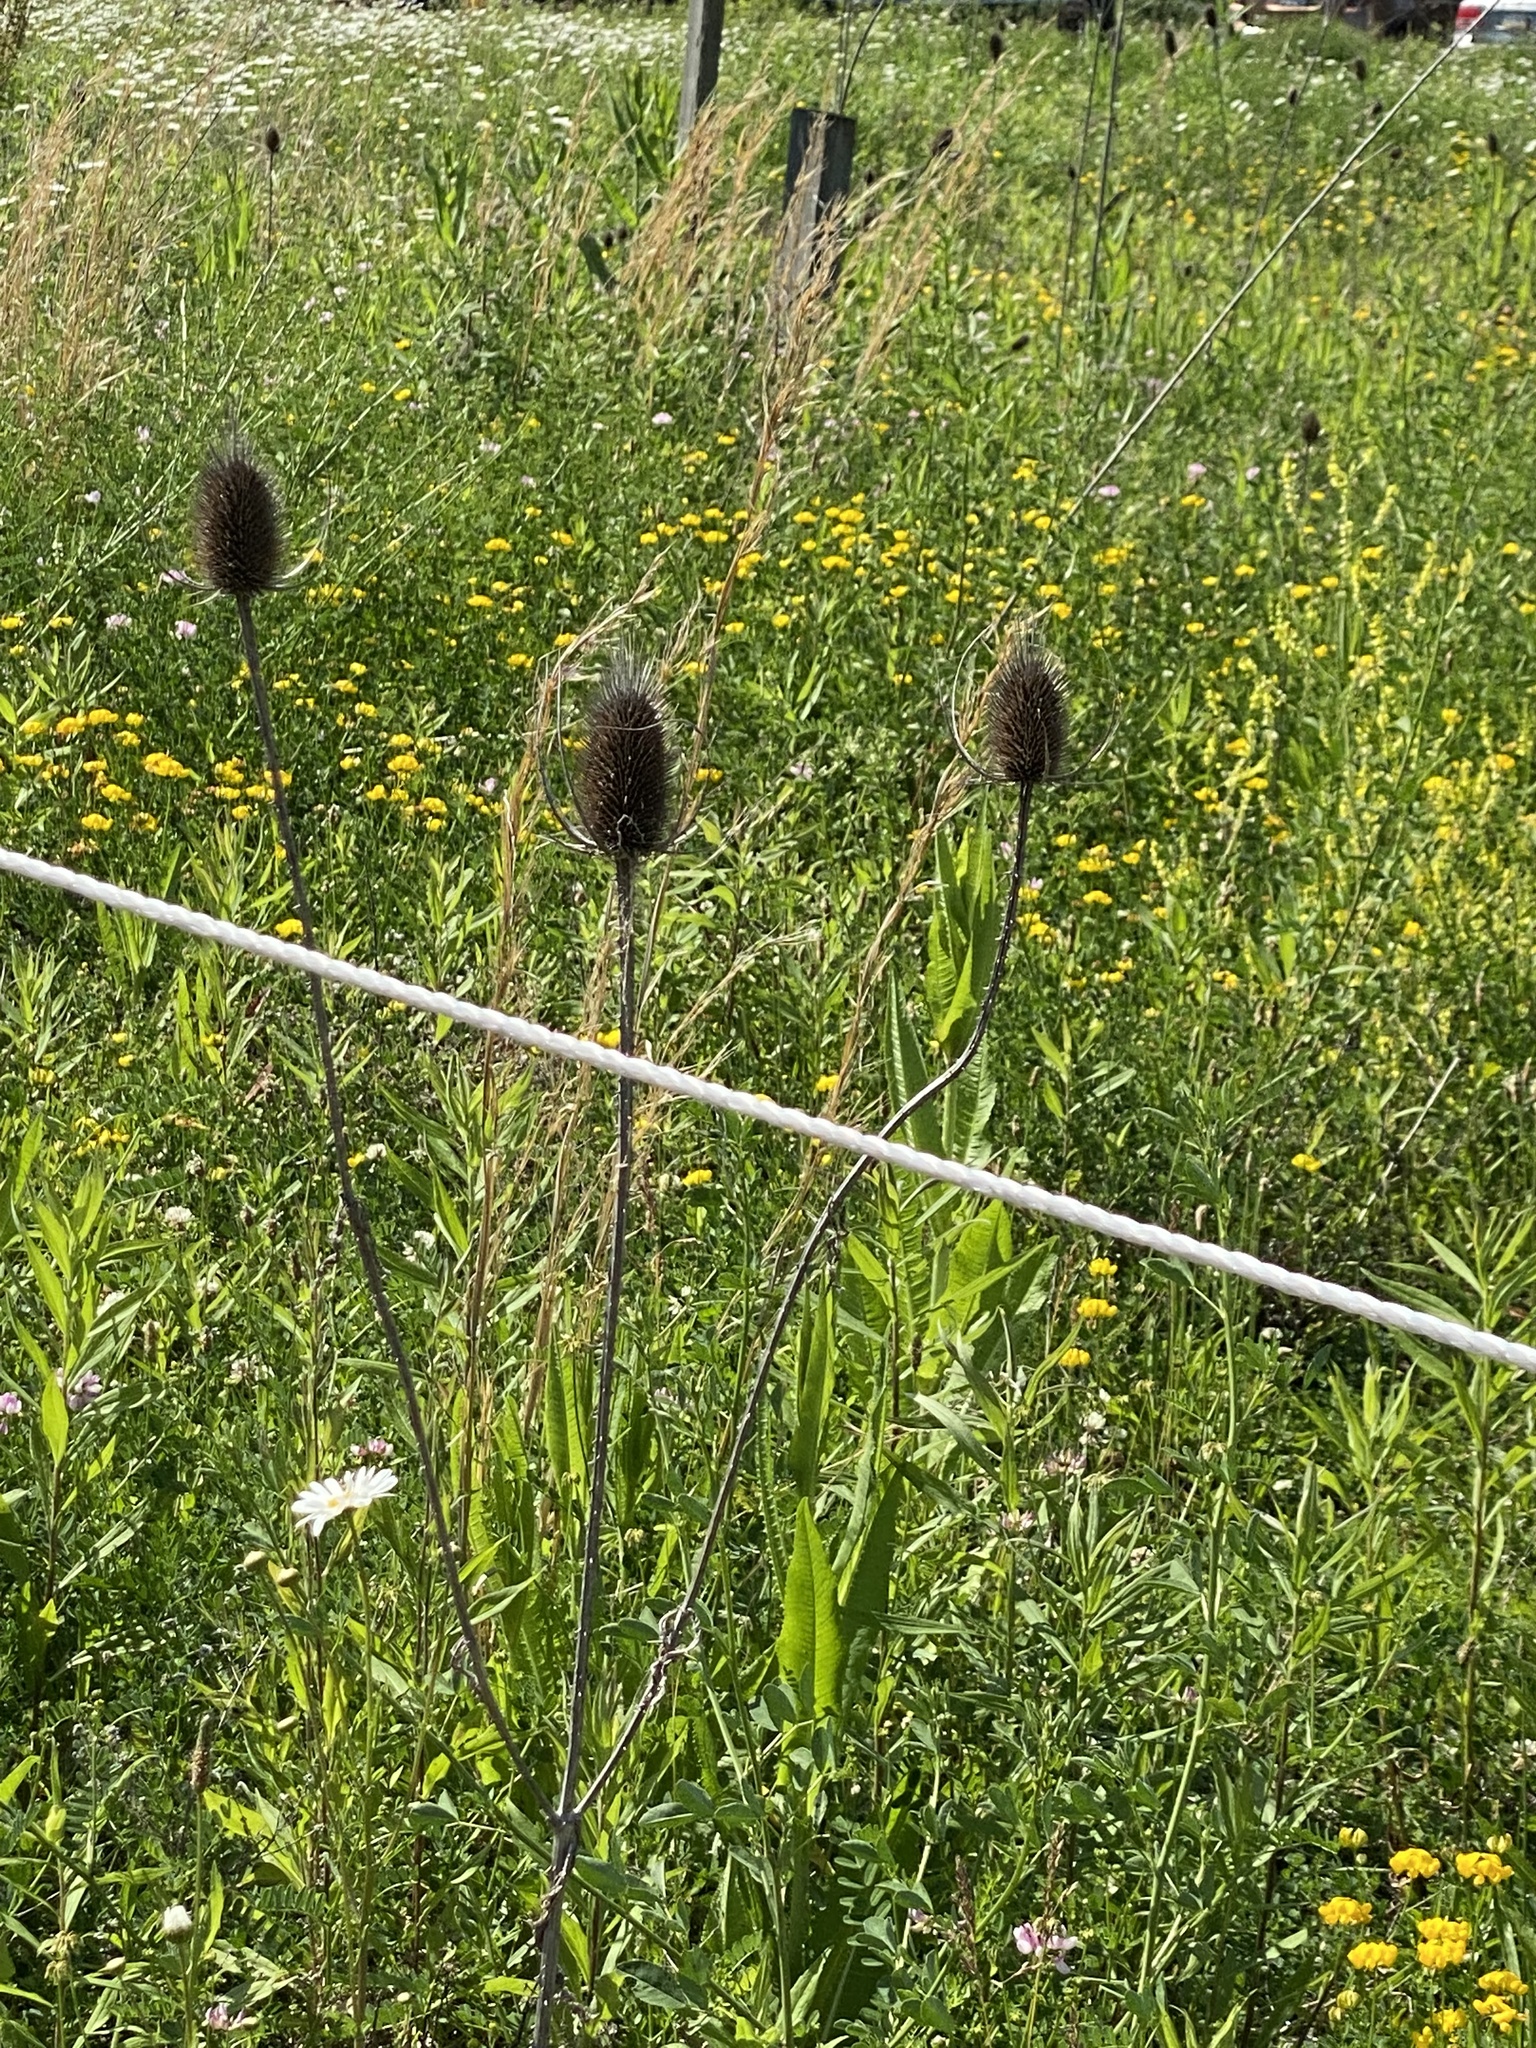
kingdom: Plantae
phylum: Tracheophyta
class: Magnoliopsida
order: Dipsacales
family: Caprifoliaceae
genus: Dipsacus
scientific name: Dipsacus fullonum
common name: Teasel
